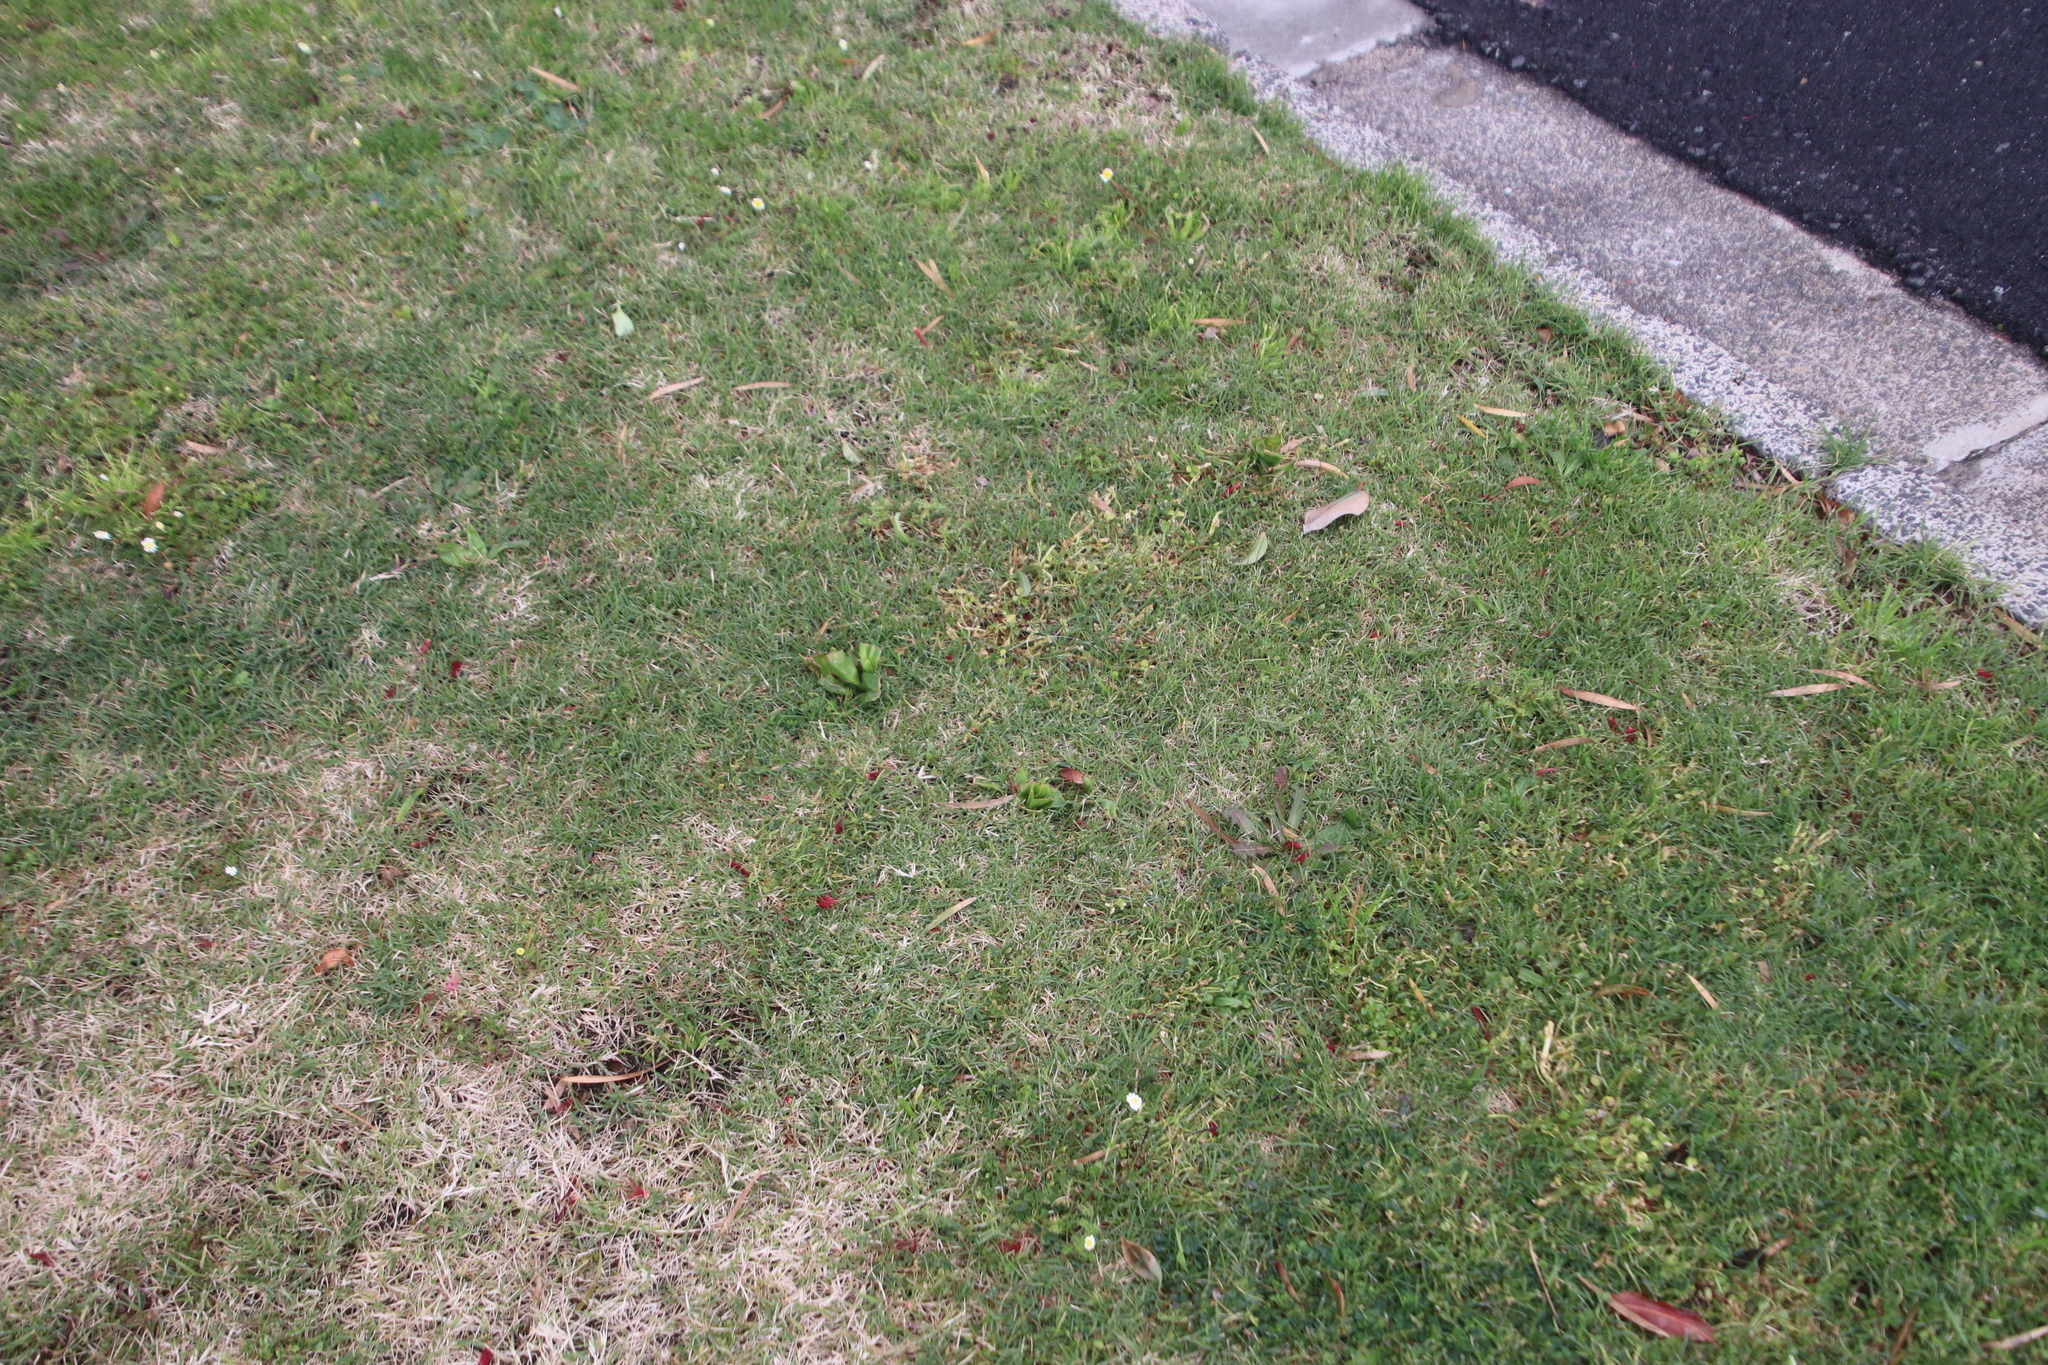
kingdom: Plantae
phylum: Tracheophyta
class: Liliopsida
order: Liliales
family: Colchicaceae
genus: Colchicum
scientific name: Colchicum eucomoides
